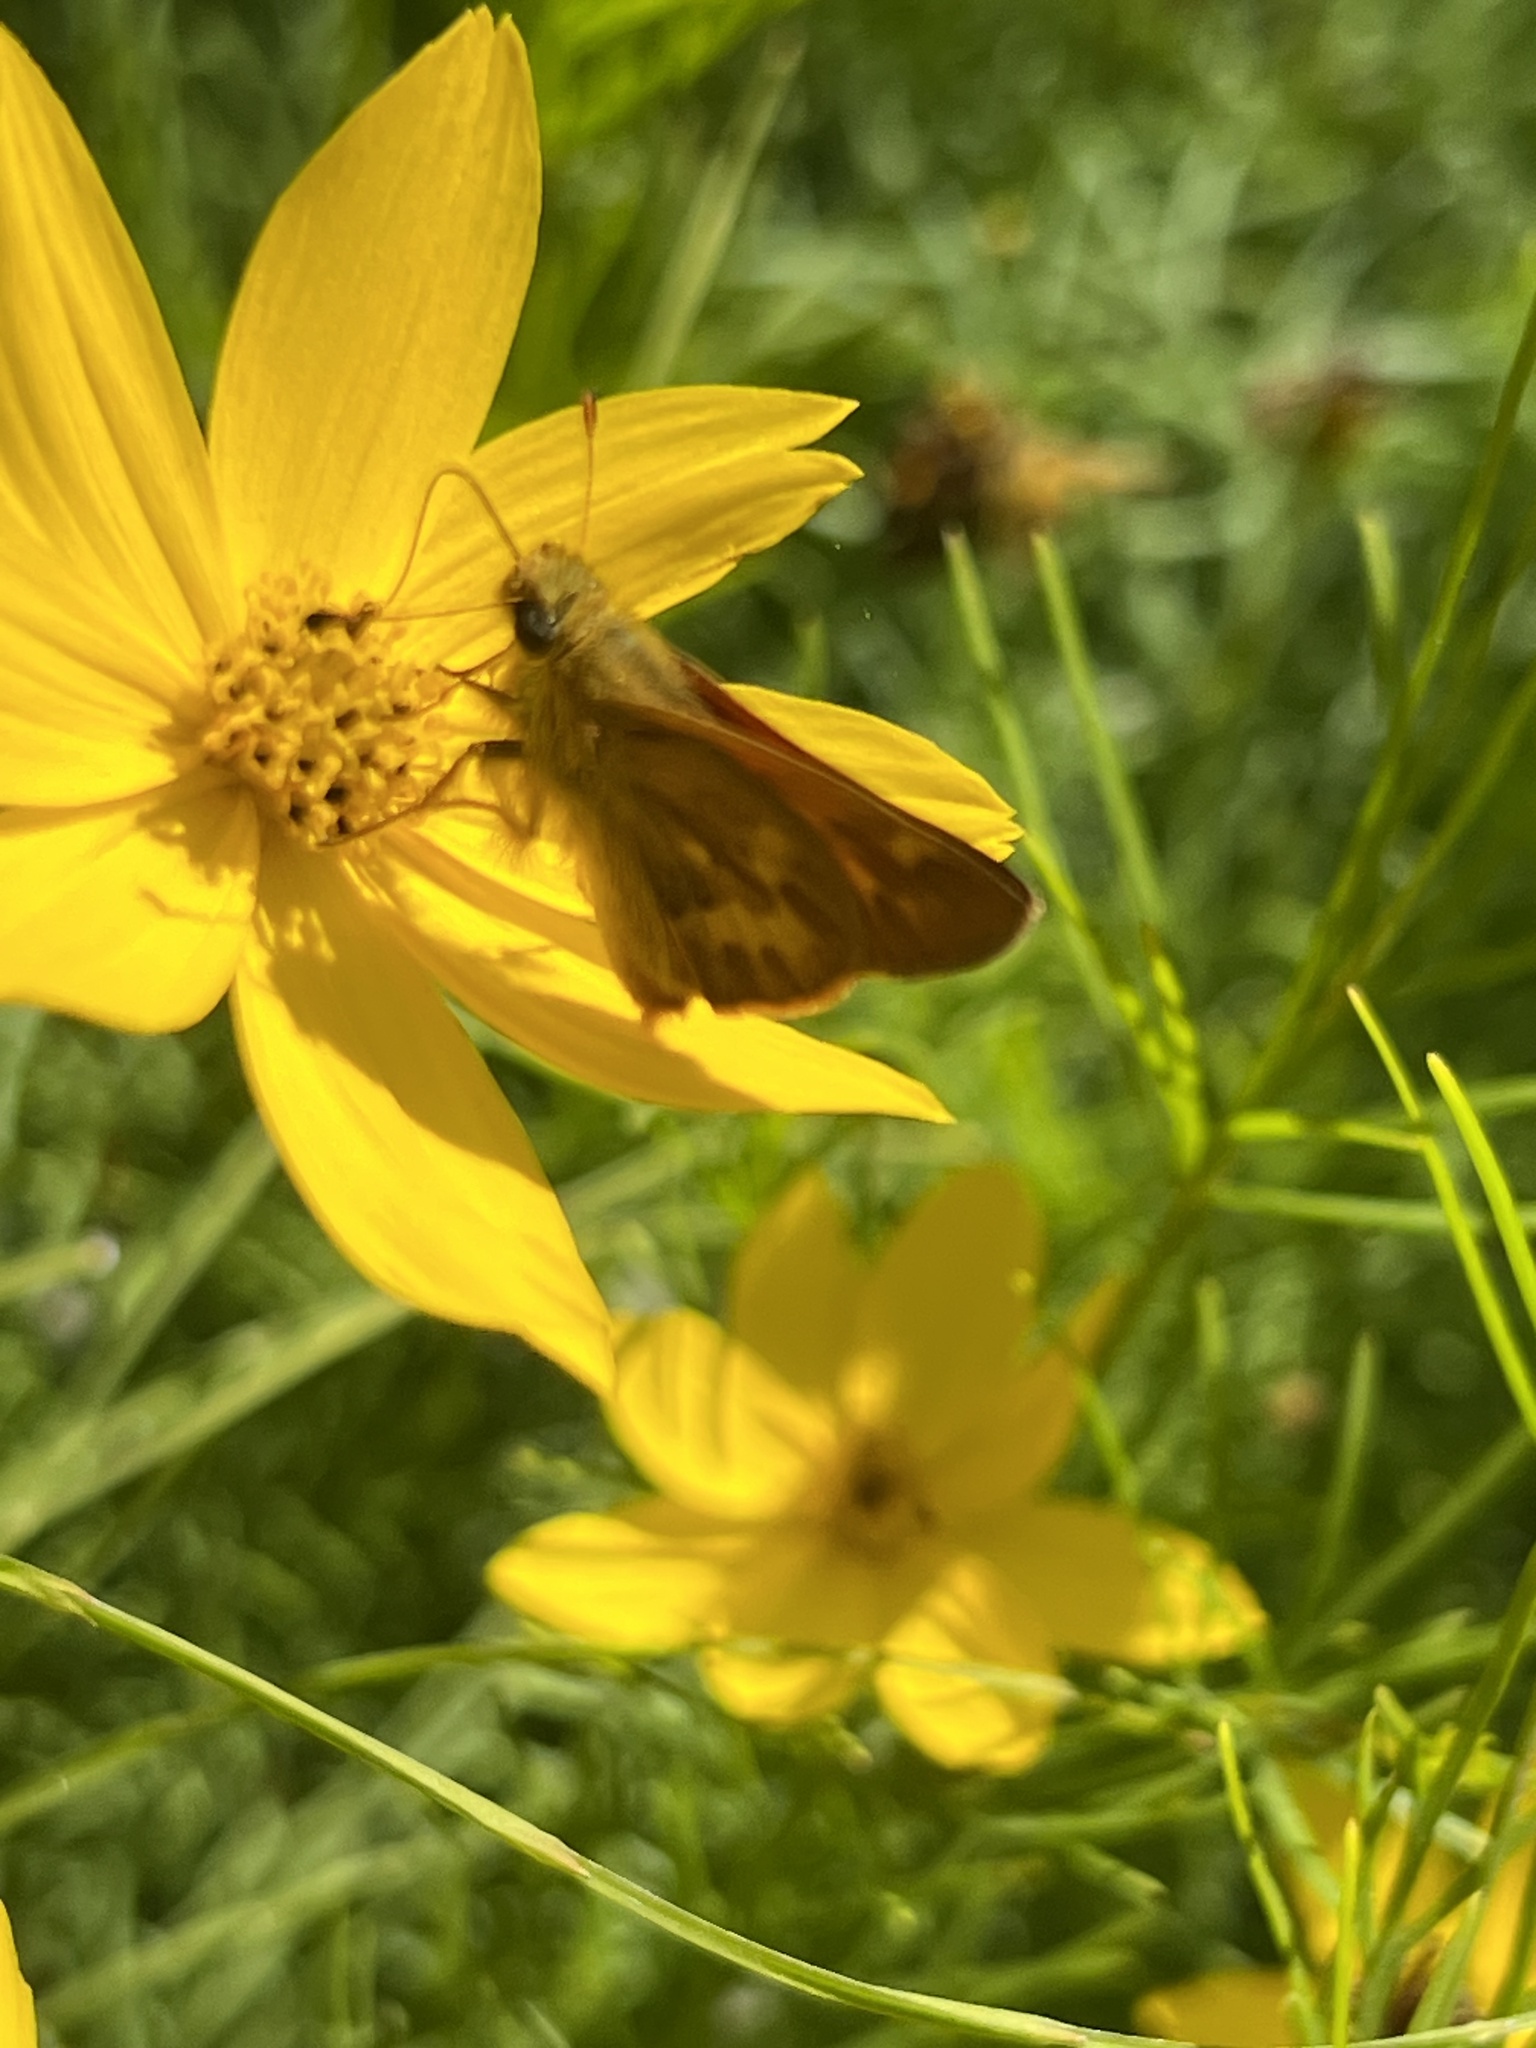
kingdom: Animalia
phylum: Arthropoda
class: Insecta
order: Lepidoptera
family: Hesperiidae
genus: Ochlodes
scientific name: Ochlodes sylvanoides
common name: Woodland skipper
